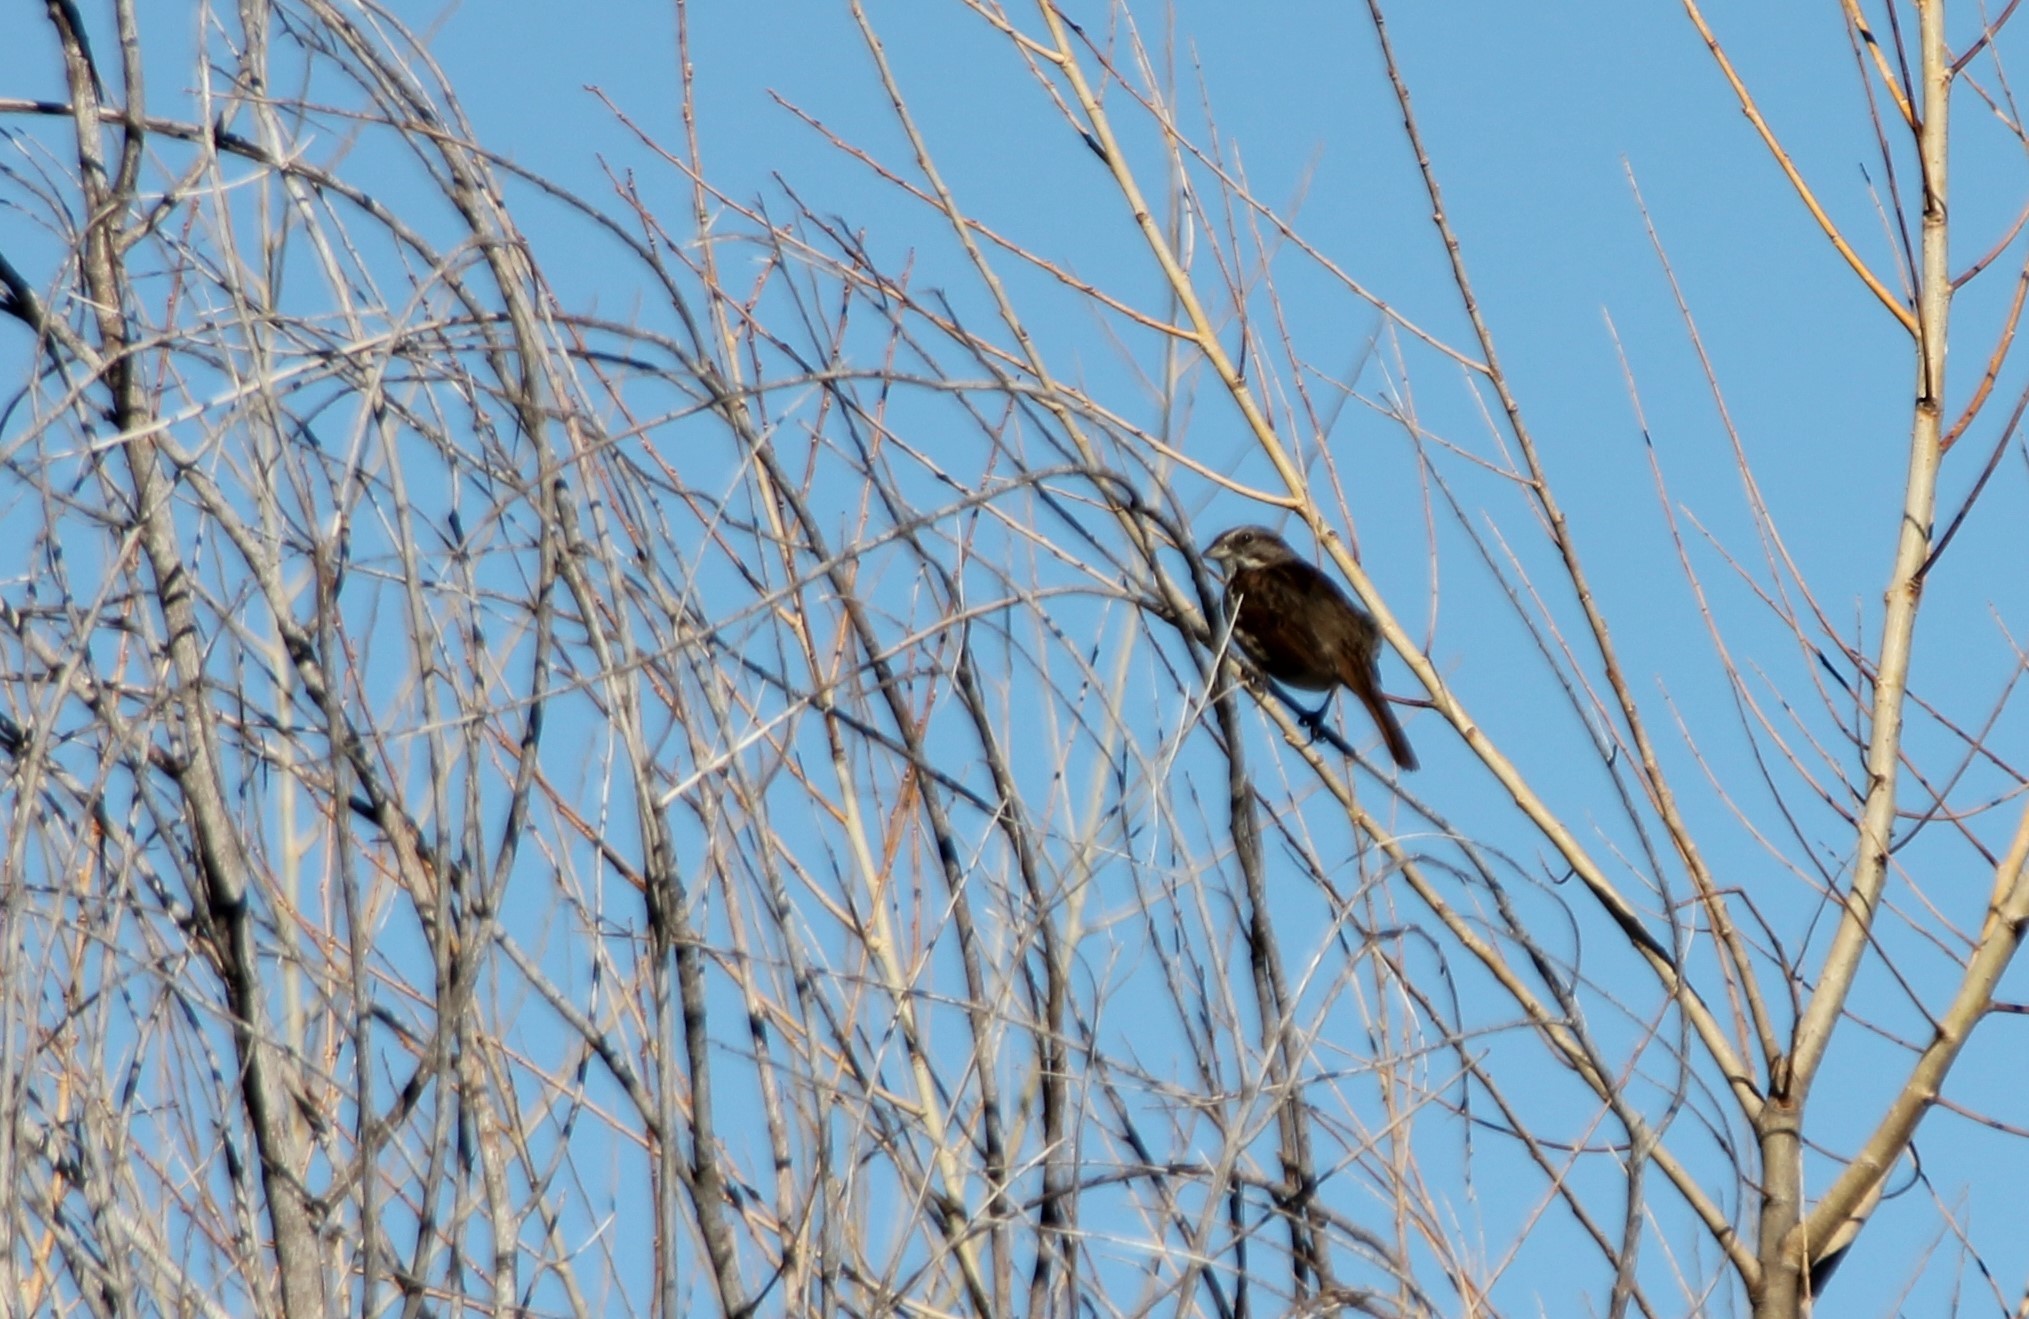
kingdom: Animalia
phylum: Chordata
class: Aves
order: Passeriformes
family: Passerellidae
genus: Melospiza
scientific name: Melospiza melodia
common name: Song sparrow
